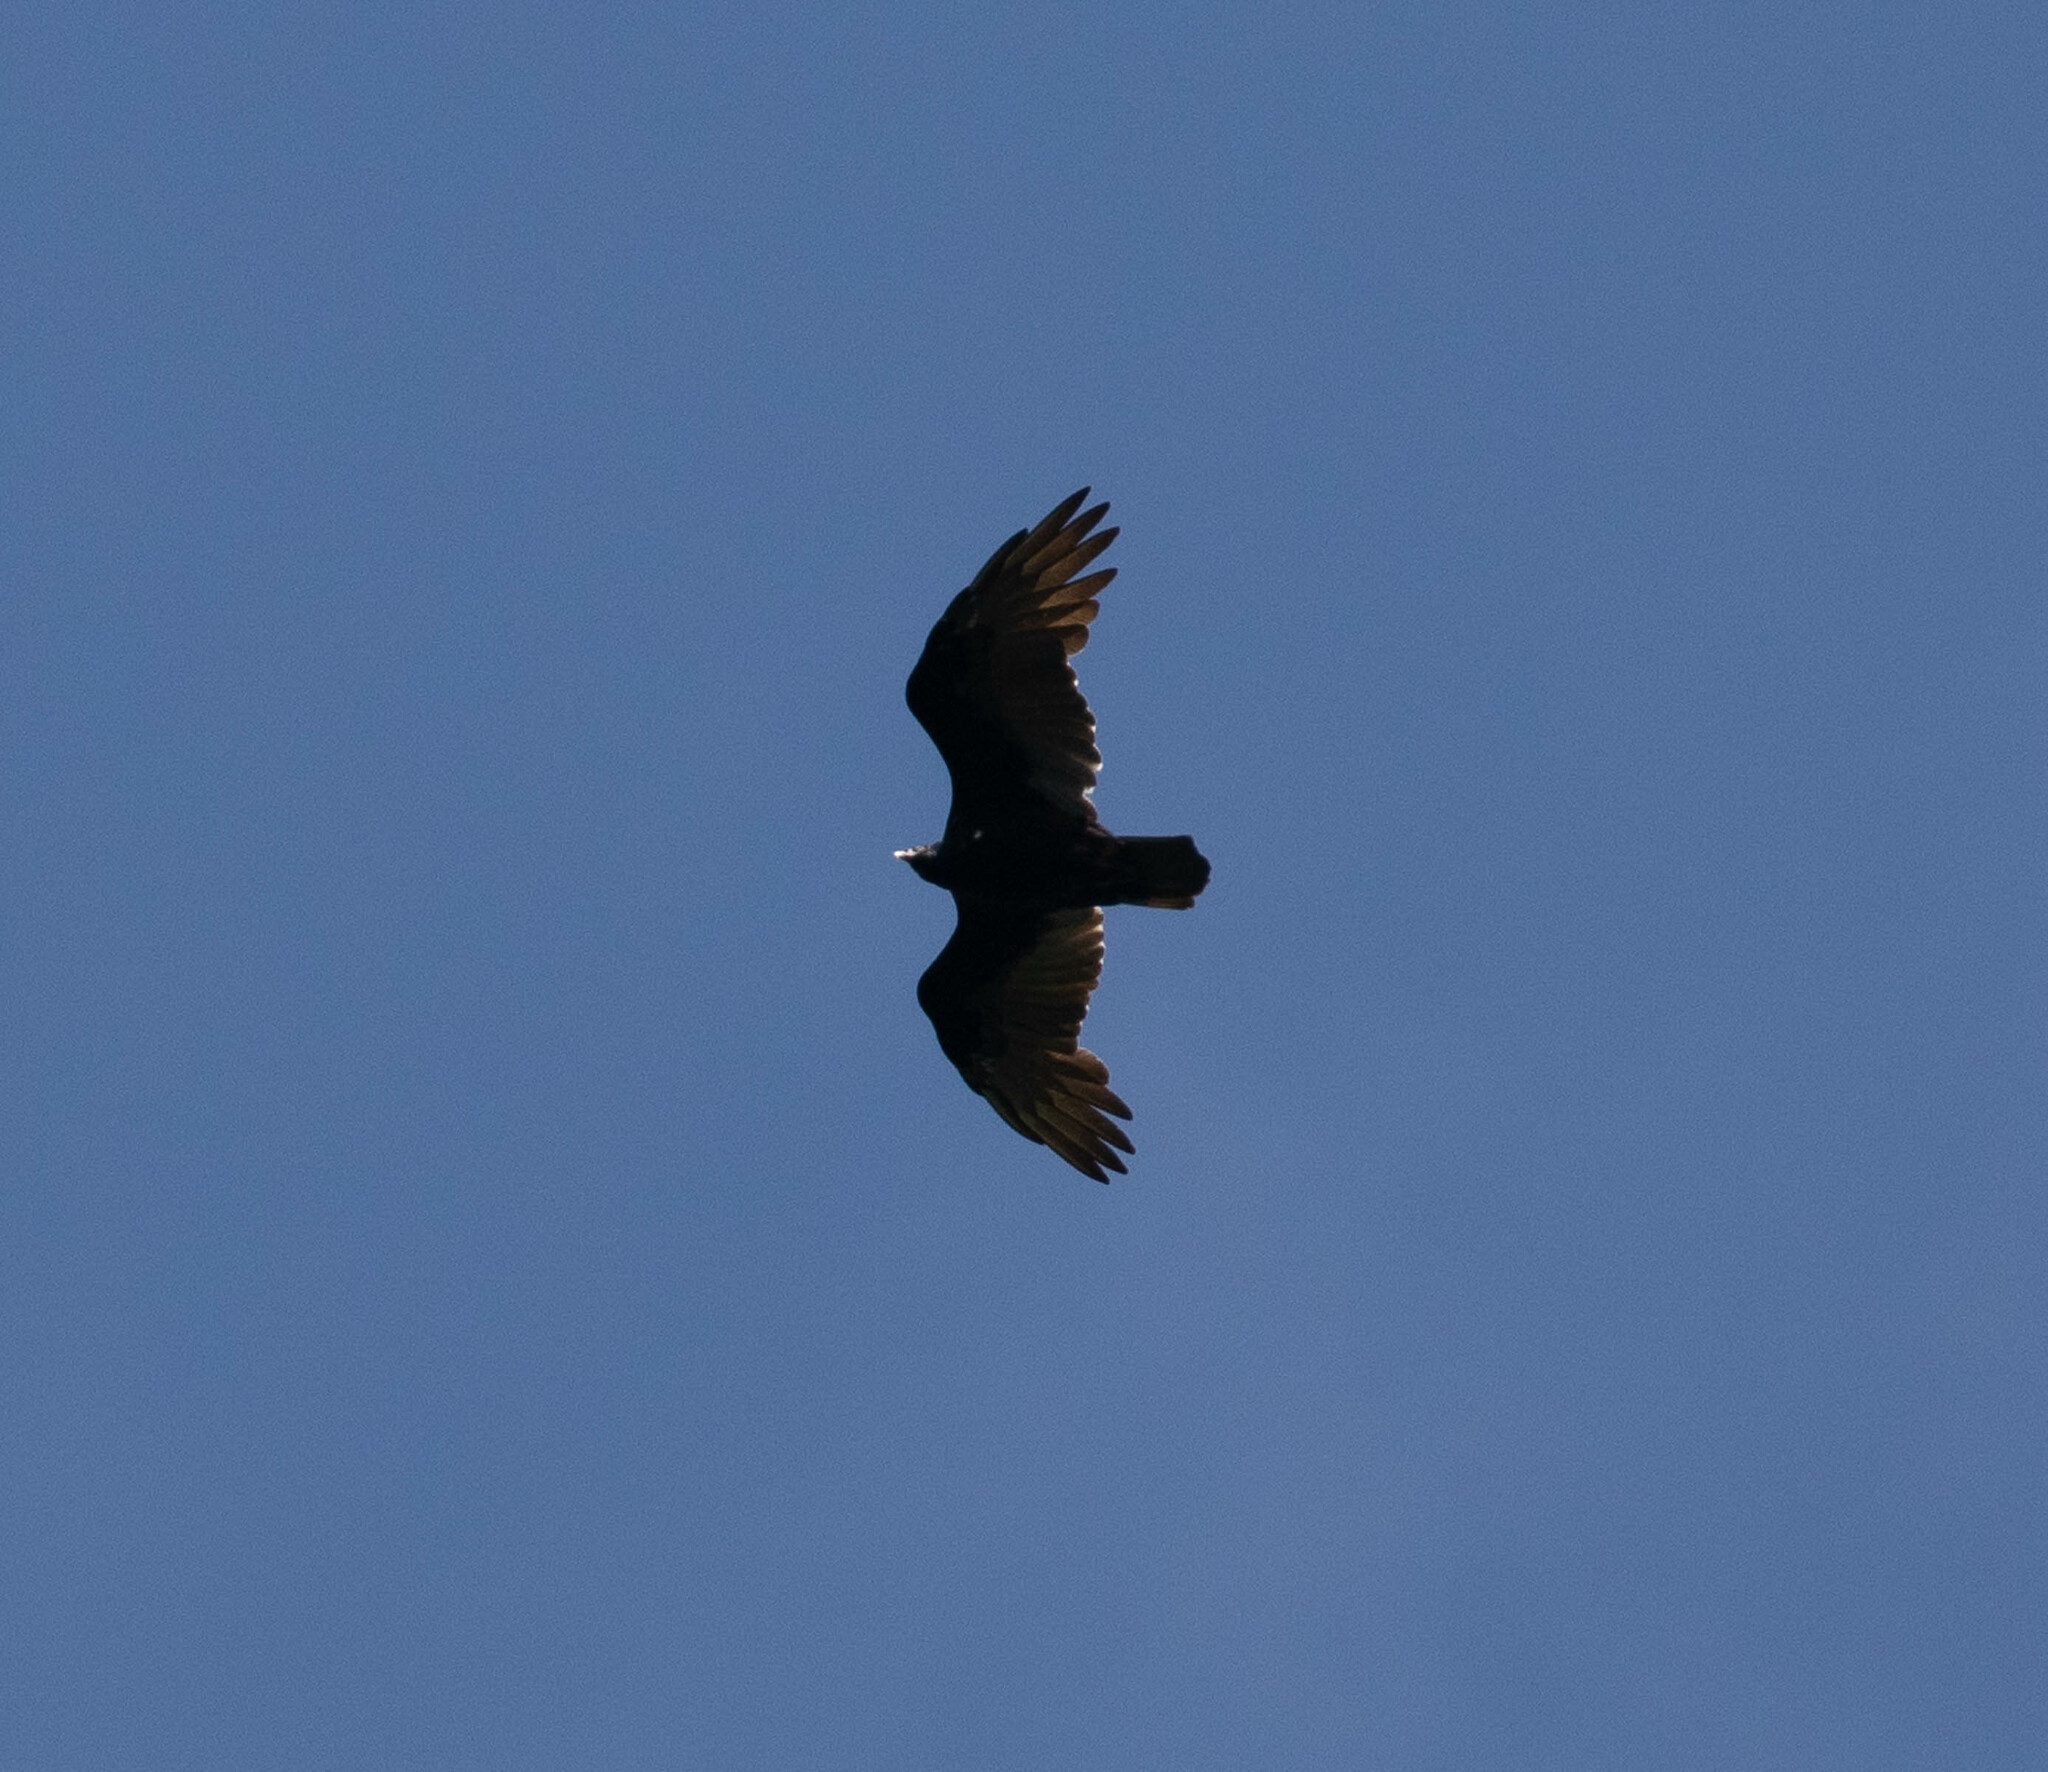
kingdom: Animalia
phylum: Chordata
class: Aves
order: Accipitriformes
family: Cathartidae
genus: Cathartes
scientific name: Cathartes aura
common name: Turkey vulture
